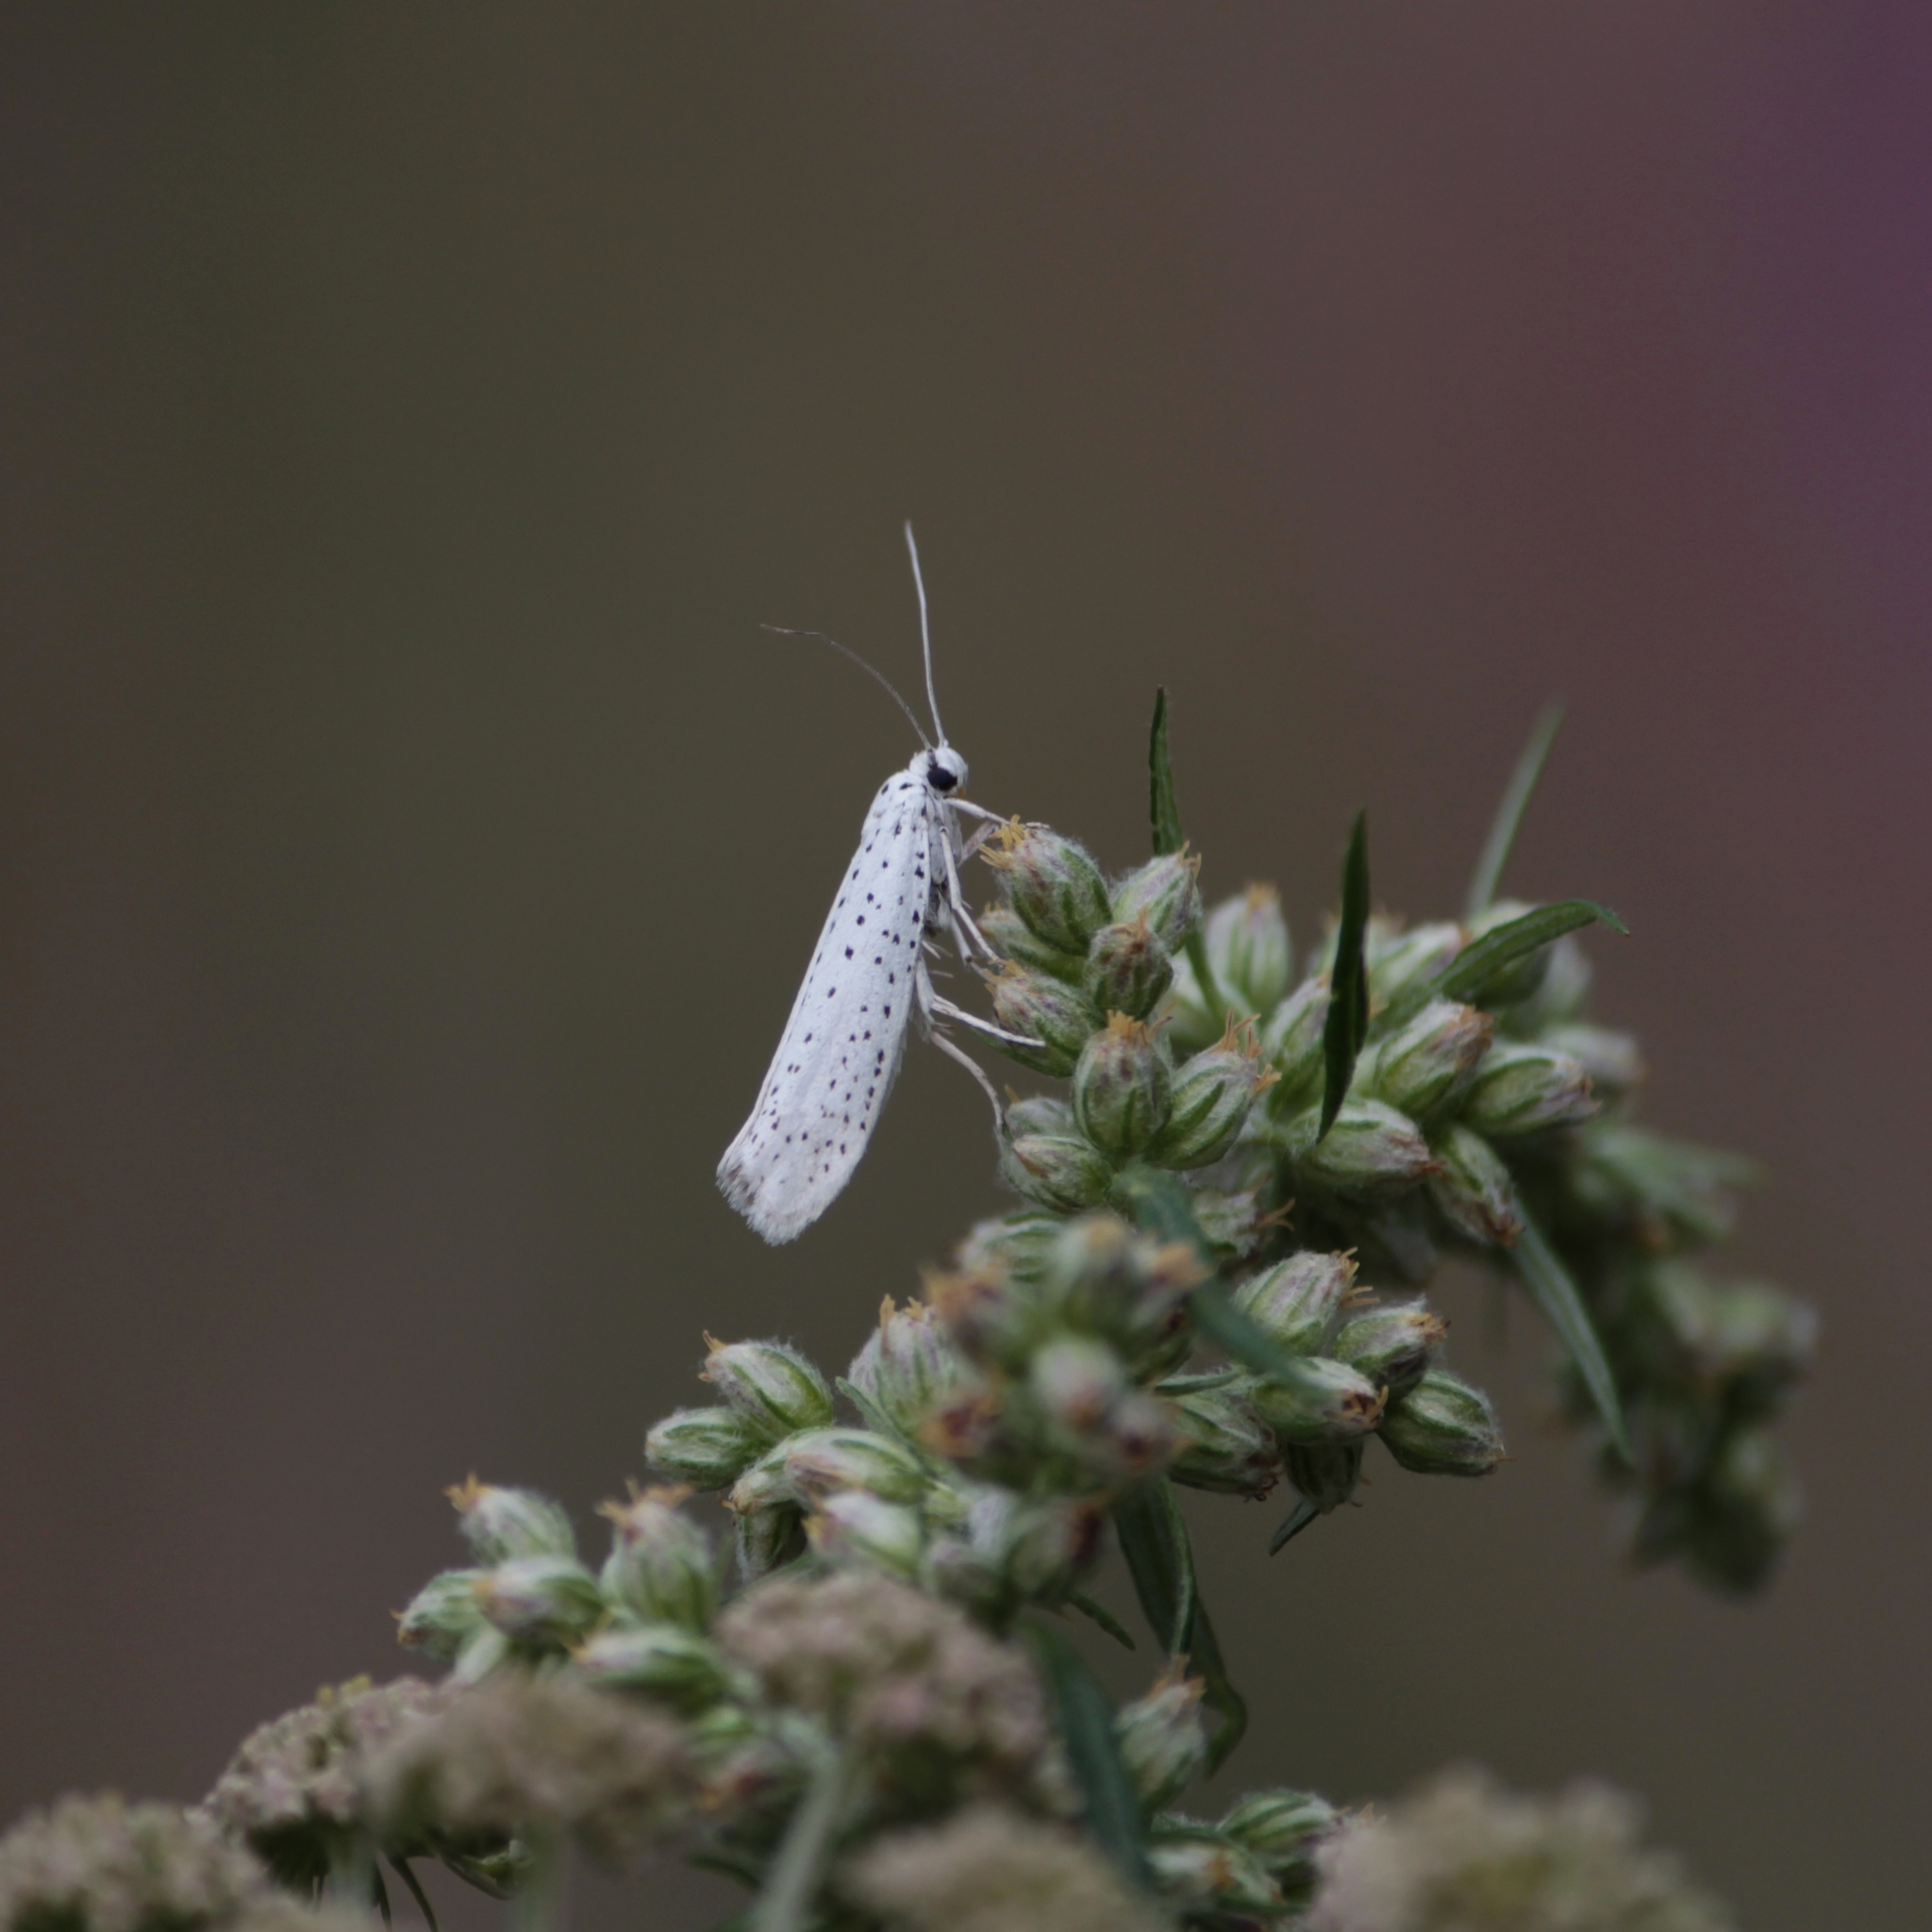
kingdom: Animalia
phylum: Arthropoda
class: Insecta
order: Lepidoptera
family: Yponomeutidae
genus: Yponomeuta
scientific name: Yponomeuta evonymella
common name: Bird-cherry ermine
